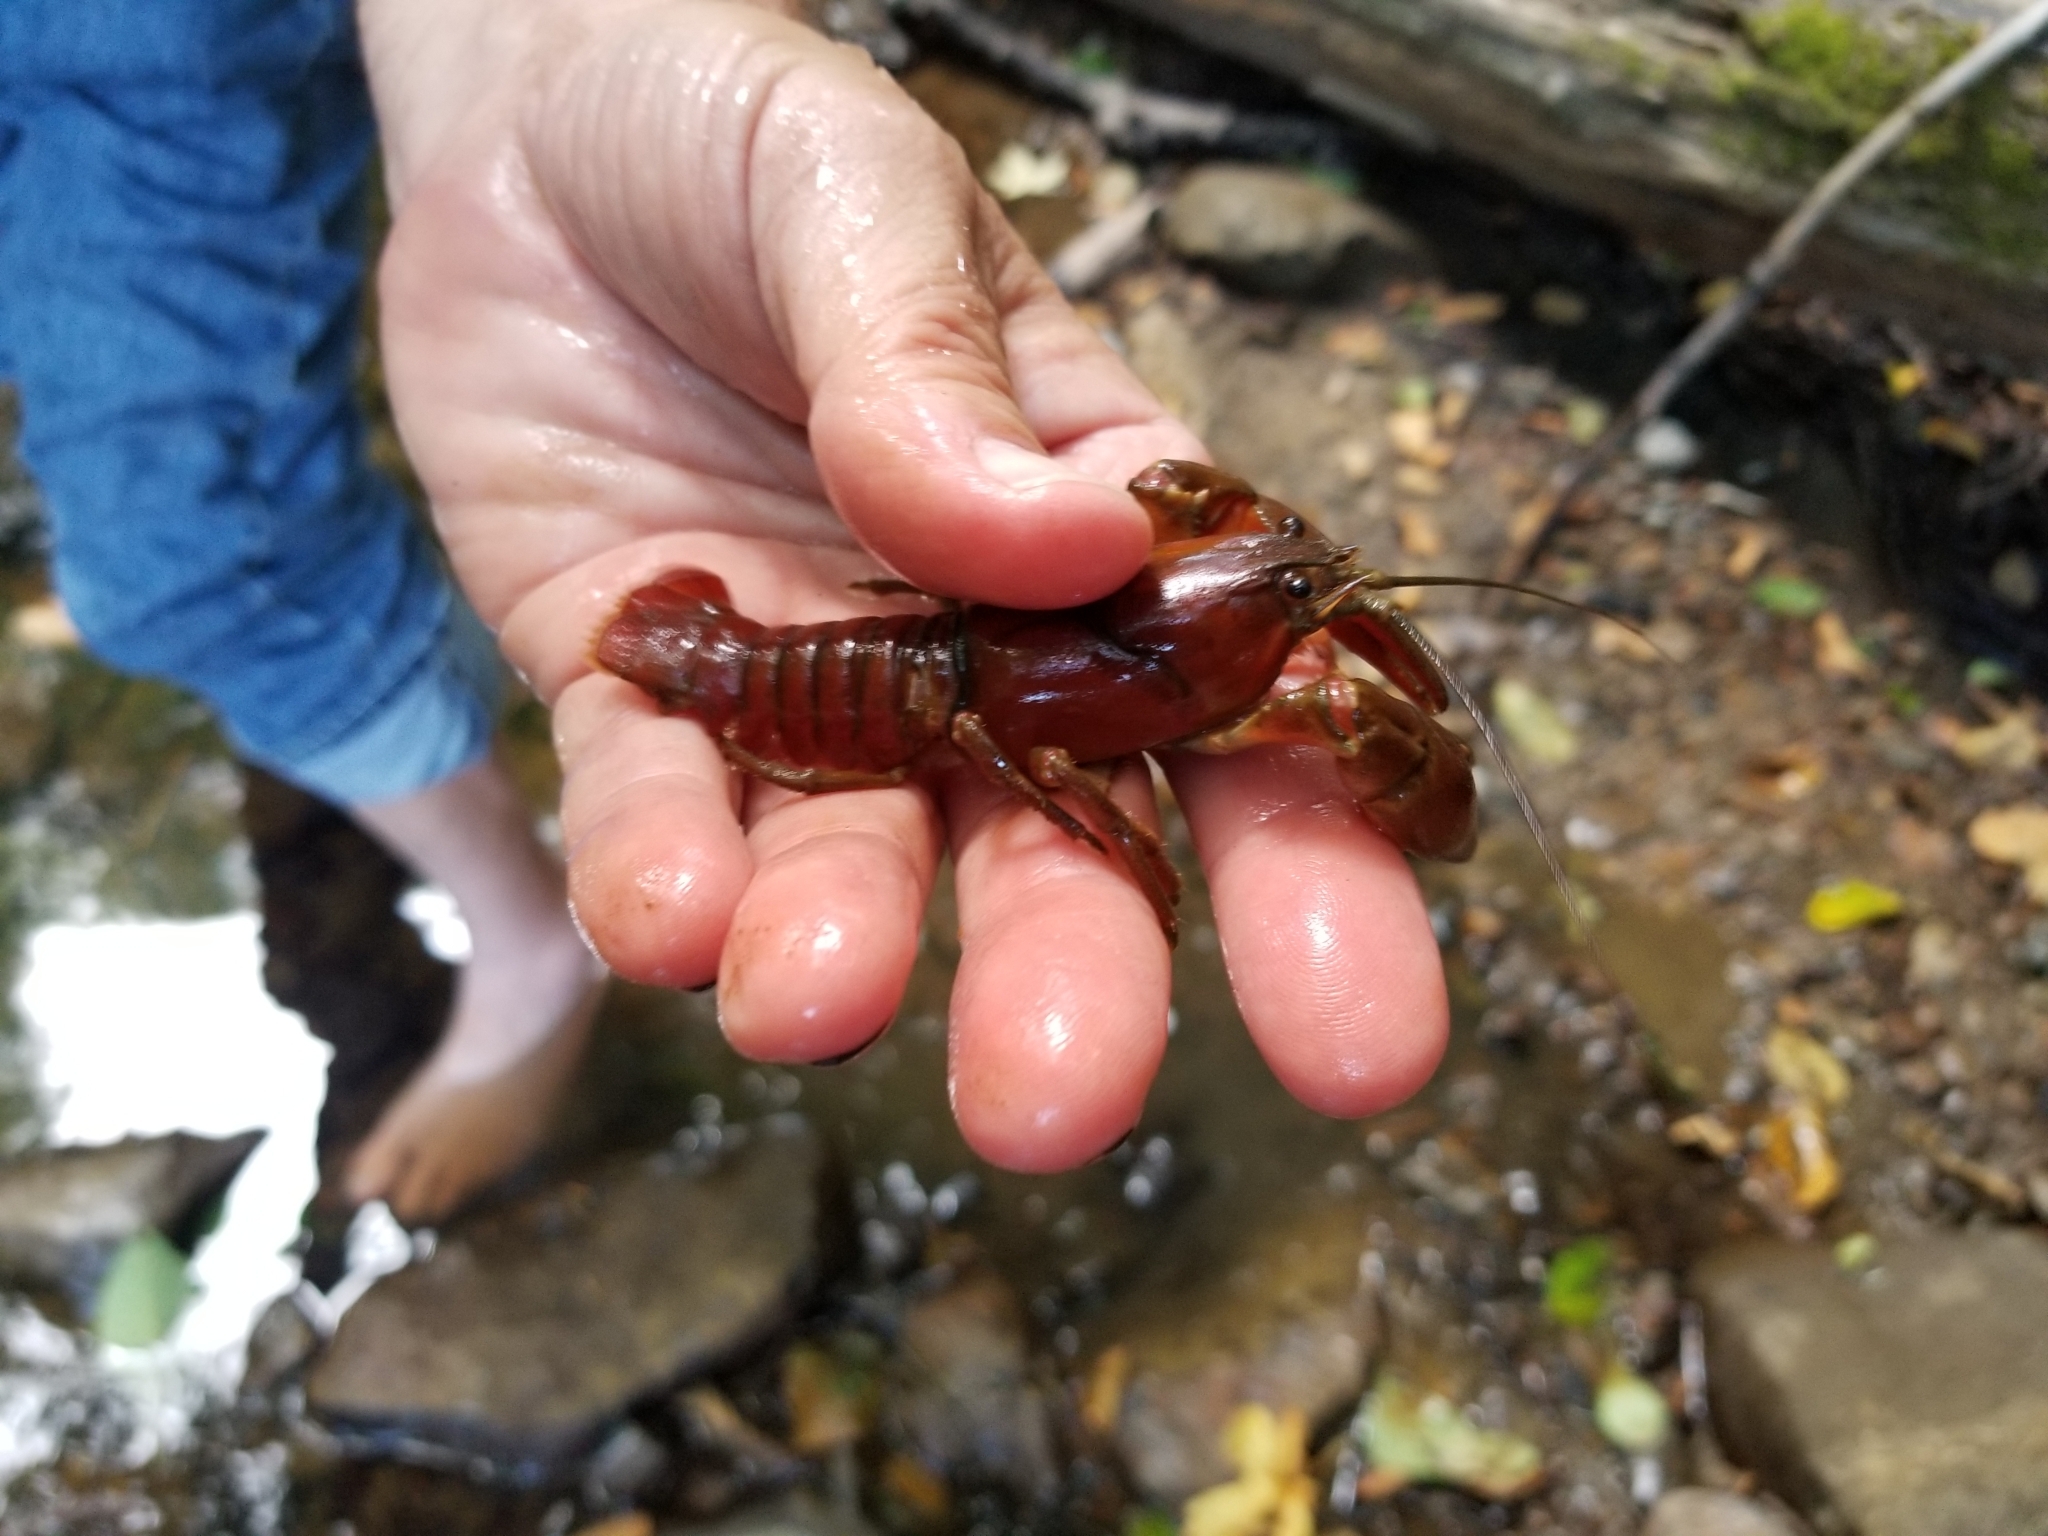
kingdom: Animalia
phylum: Arthropoda
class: Malacostraca
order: Decapoda
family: Astacidae
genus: Pacifastacus
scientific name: Pacifastacus leniusculus
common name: Signal crayfish
